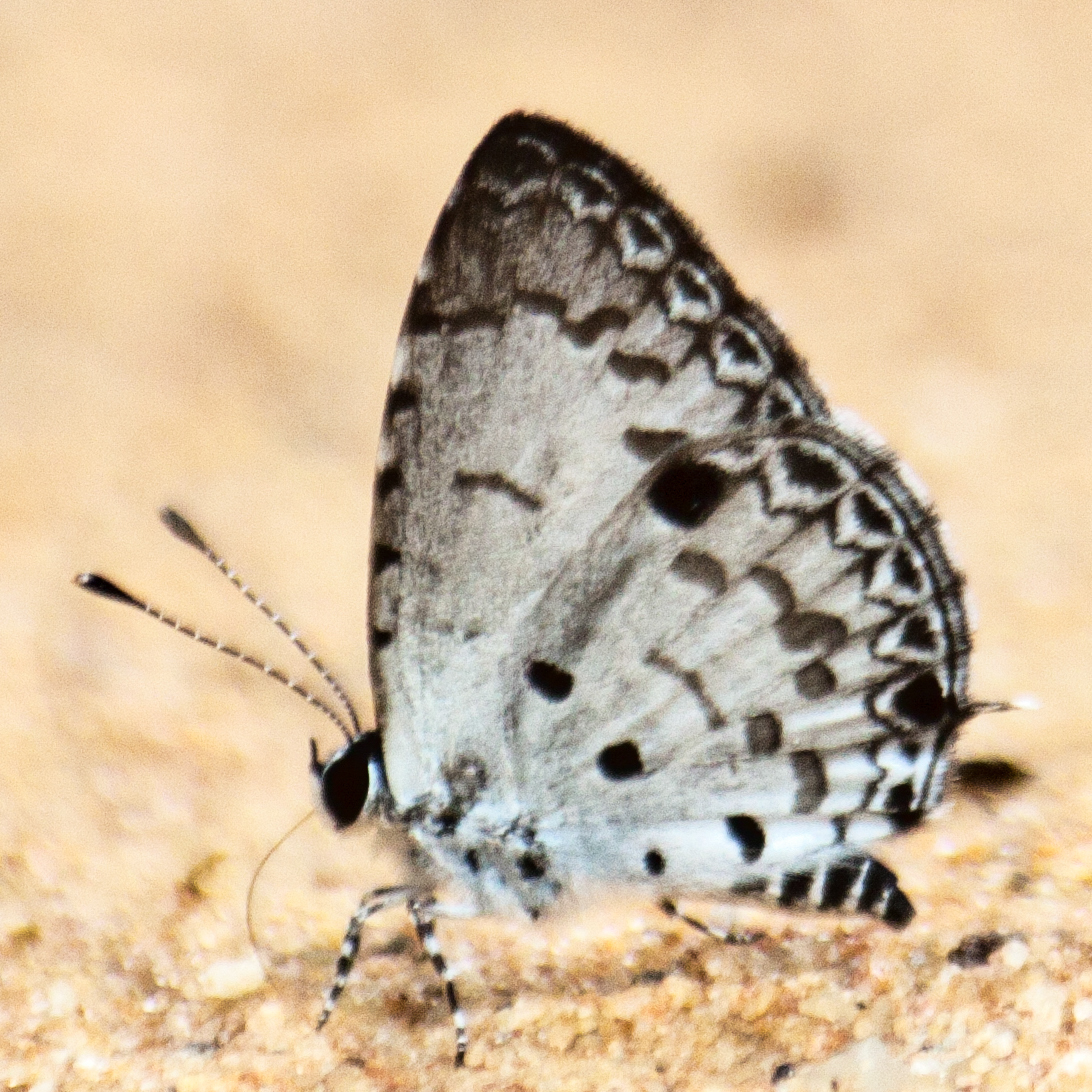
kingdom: Animalia
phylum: Arthropoda
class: Insecta
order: Lepidoptera
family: Lycaenidae
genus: Megisba
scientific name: Megisba malaya
